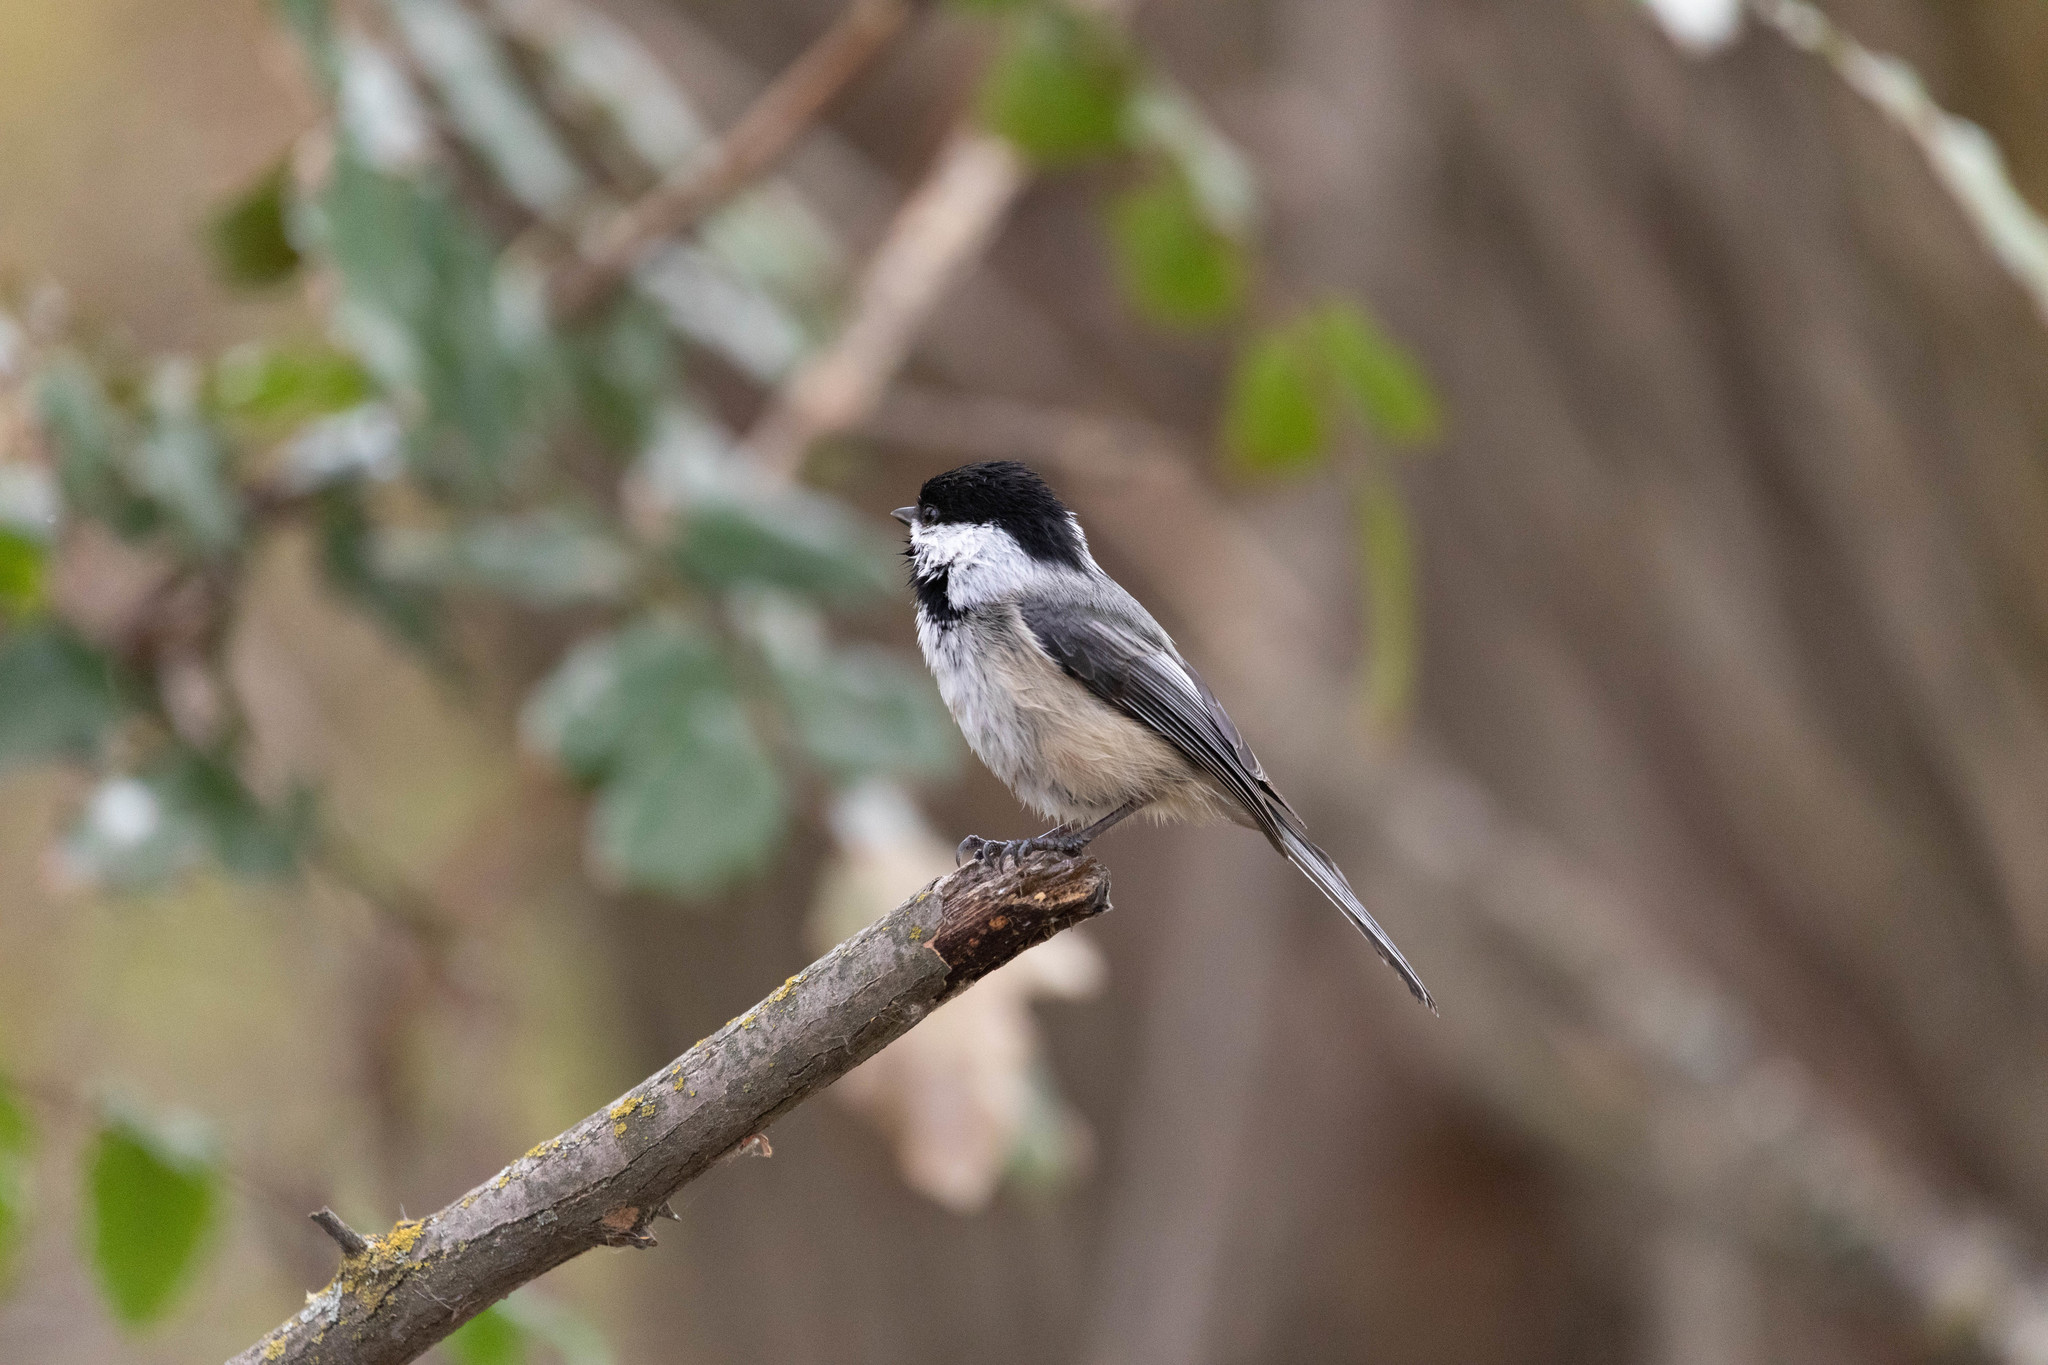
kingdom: Animalia
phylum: Chordata
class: Aves
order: Passeriformes
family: Paridae
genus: Poecile
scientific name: Poecile atricapillus
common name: Black-capped chickadee
